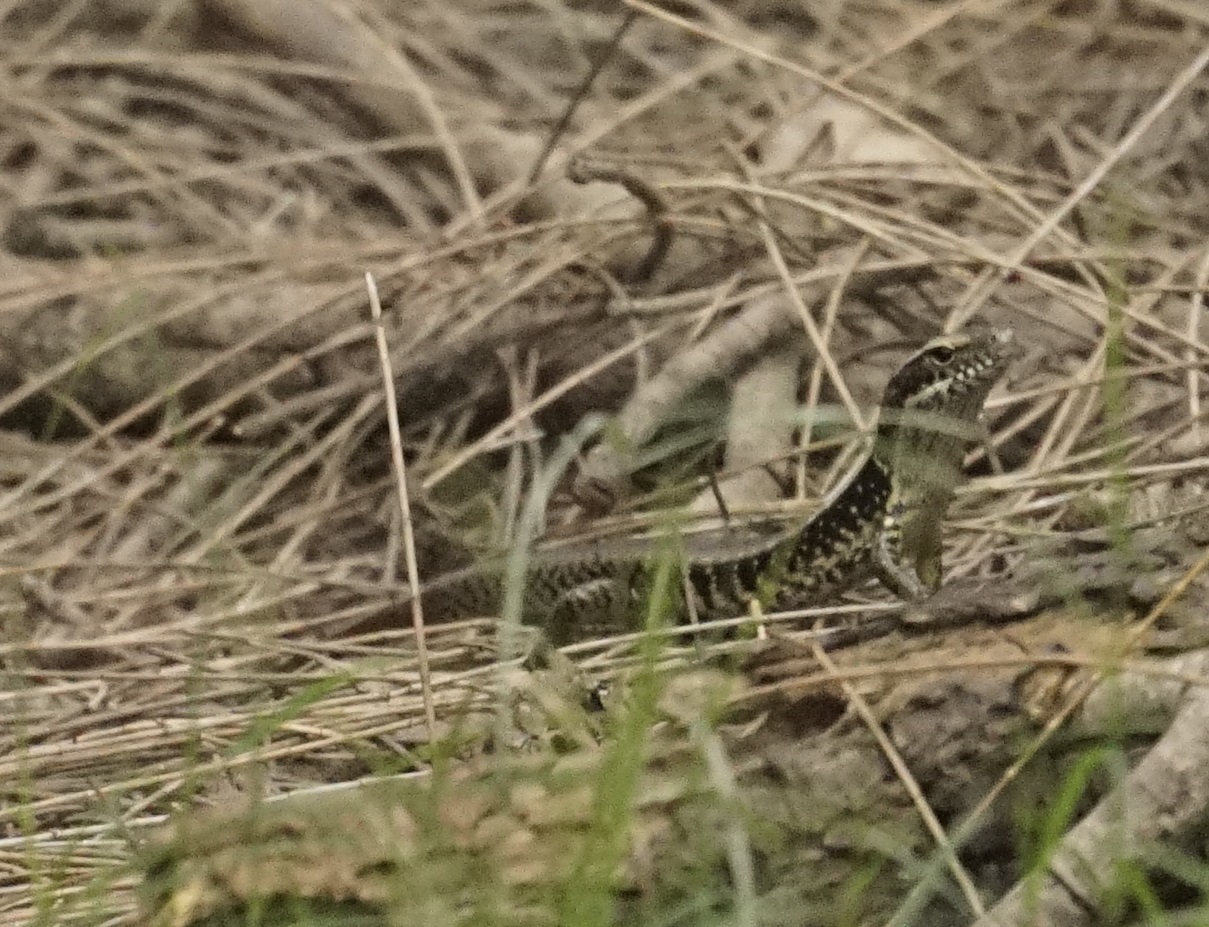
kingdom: Animalia
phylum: Chordata
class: Squamata
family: Scincidae
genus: Eulamprus
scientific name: Eulamprus quoyii
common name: Eastern water skink
